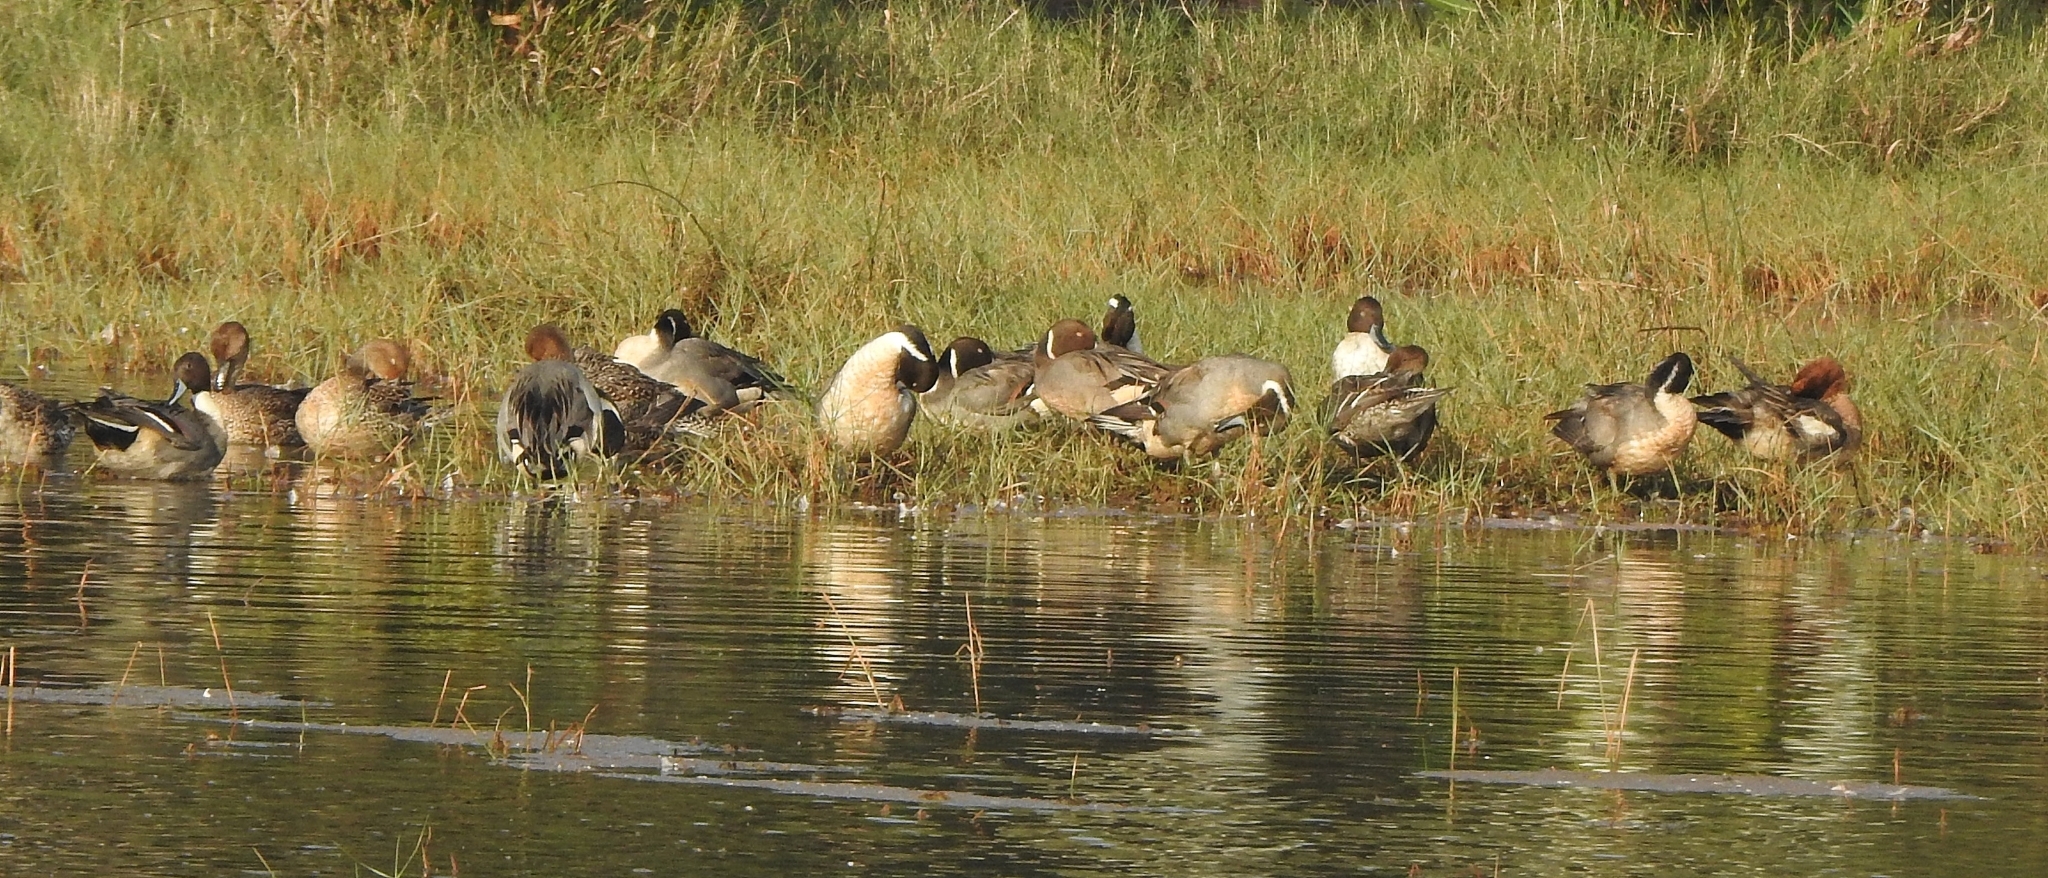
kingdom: Animalia
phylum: Chordata
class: Aves
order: Anseriformes
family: Anatidae
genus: Anas
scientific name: Anas acuta
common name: Northern pintail
